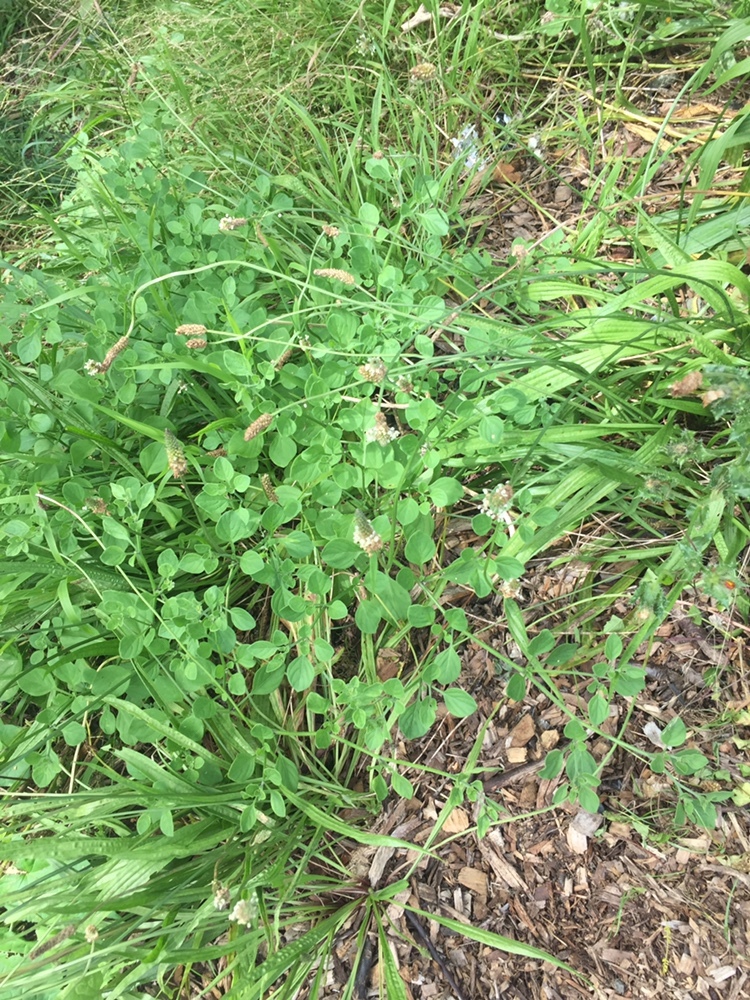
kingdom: Plantae
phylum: Tracheophyta
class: Magnoliopsida
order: Solanales
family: Solanaceae
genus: Salpichroa
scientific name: Salpichroa origanifolia
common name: Lily-of-the-valley-vine
